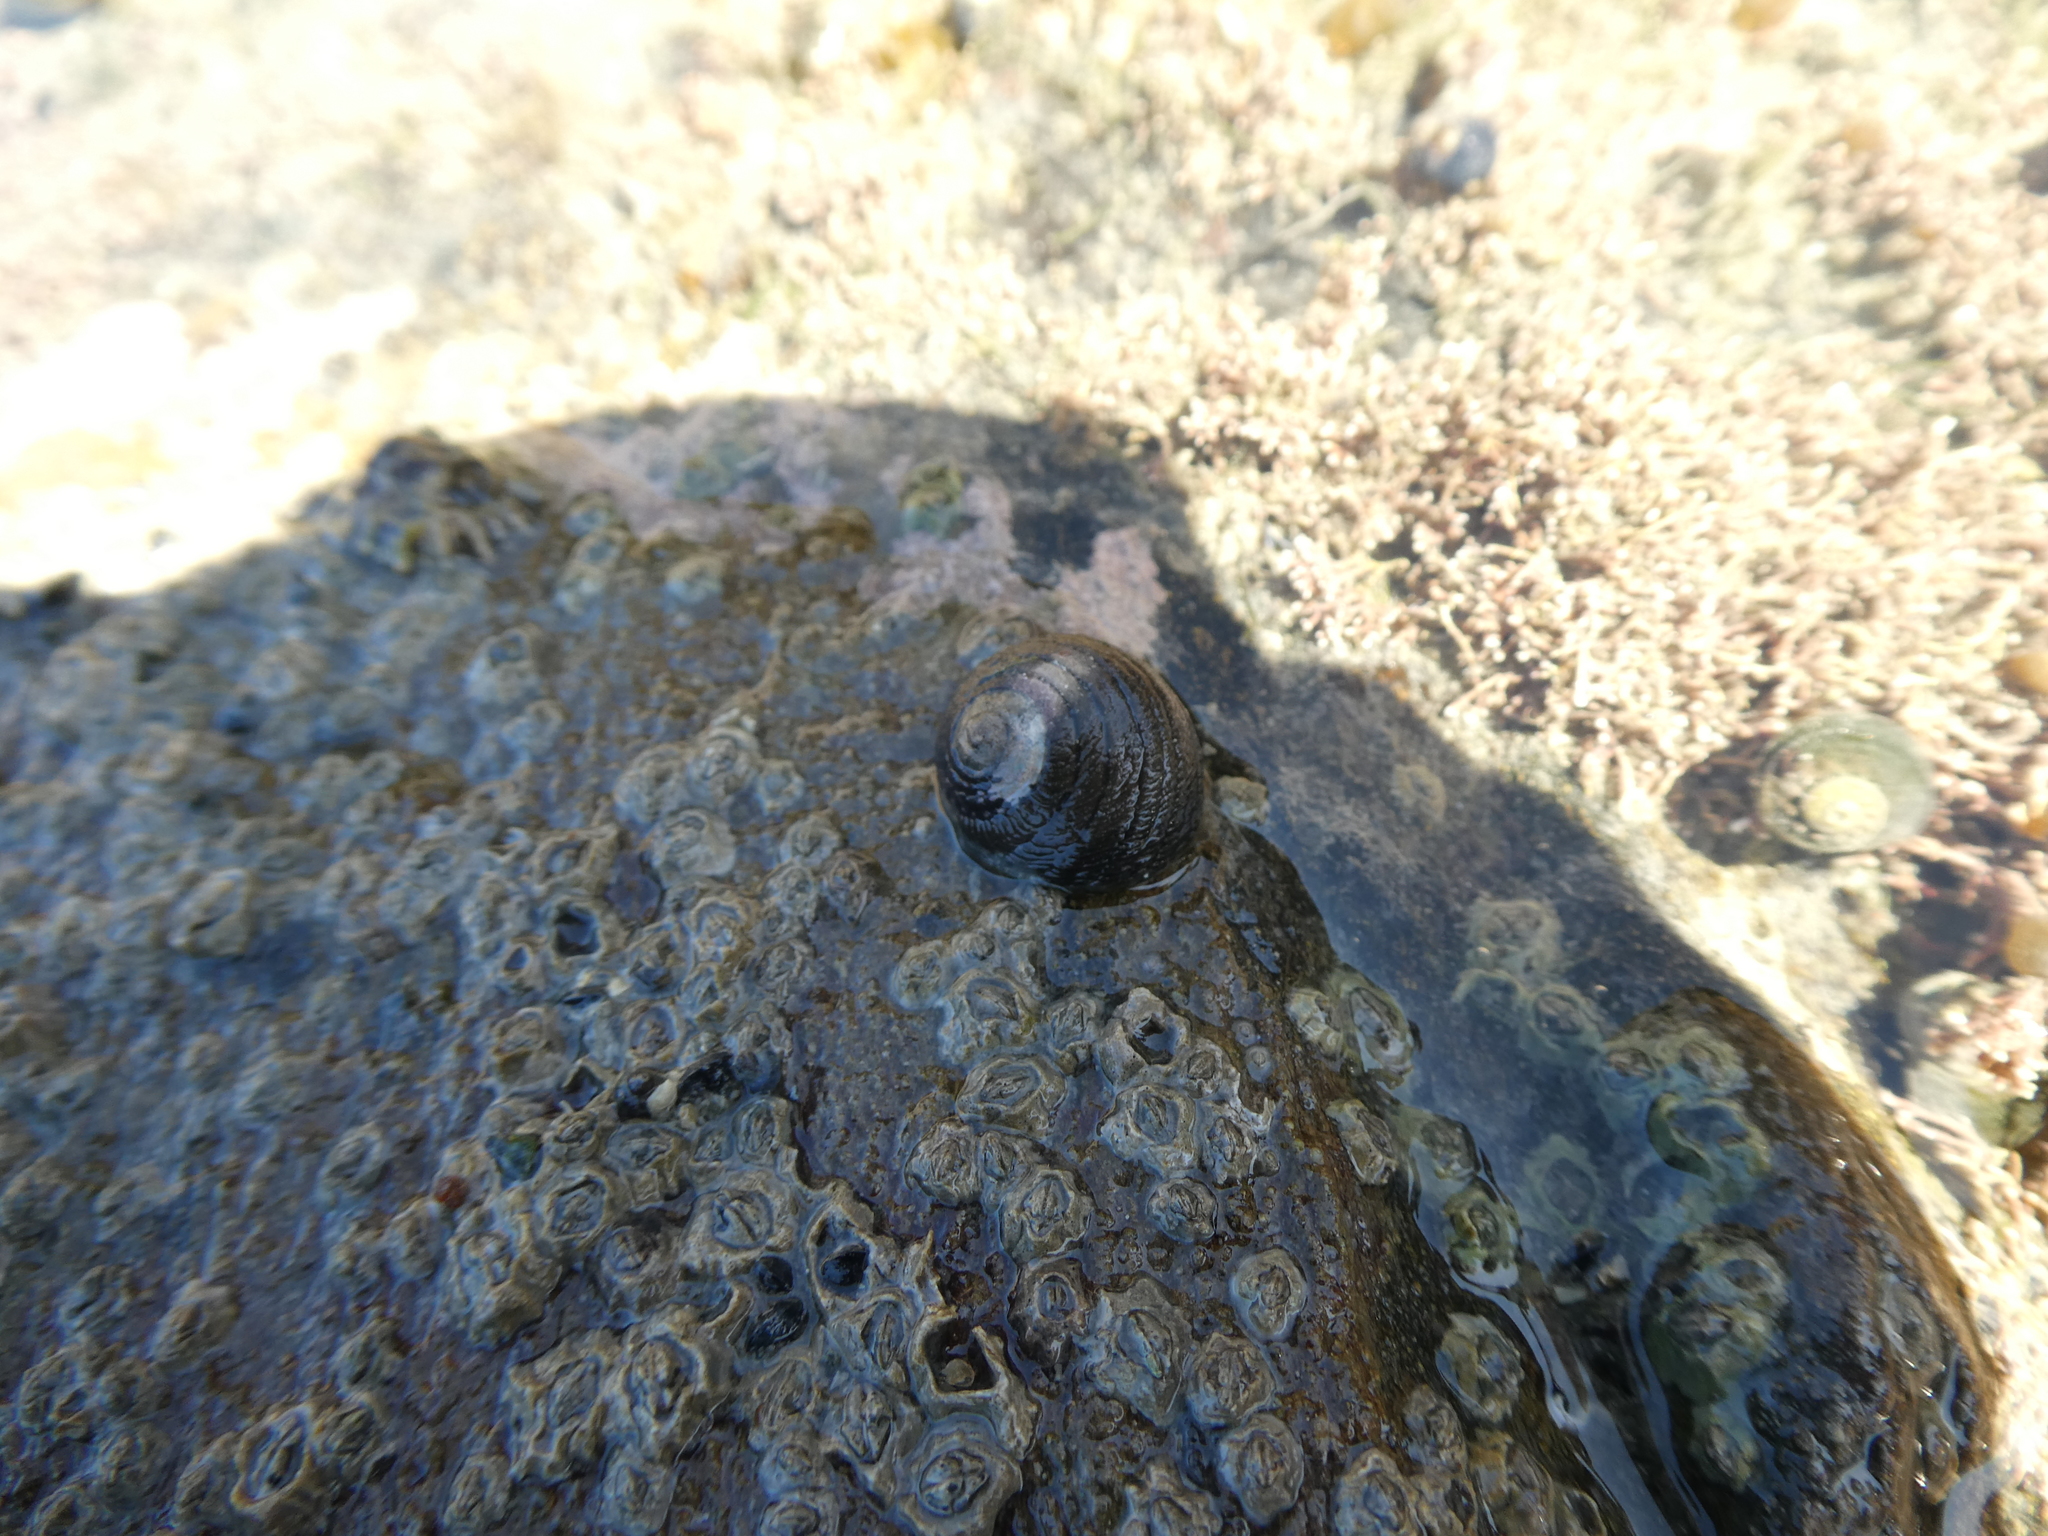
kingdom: Animalia
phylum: Mollusca
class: Gastropoda
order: Trochida
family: Trochidae
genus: Diloma
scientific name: Diloma aethiops
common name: Scorched monodont
